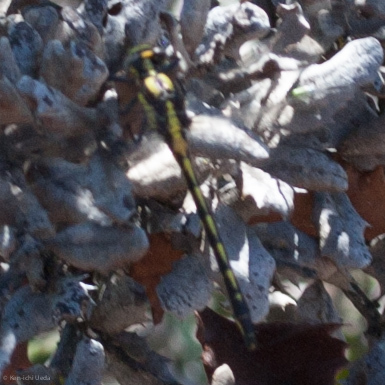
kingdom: Animalia
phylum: Arthropoda
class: Insecta
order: Odonata
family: Gomphidae
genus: Phanogomphus
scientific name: Phanogomphus kurilis
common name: Pacific clubtail
